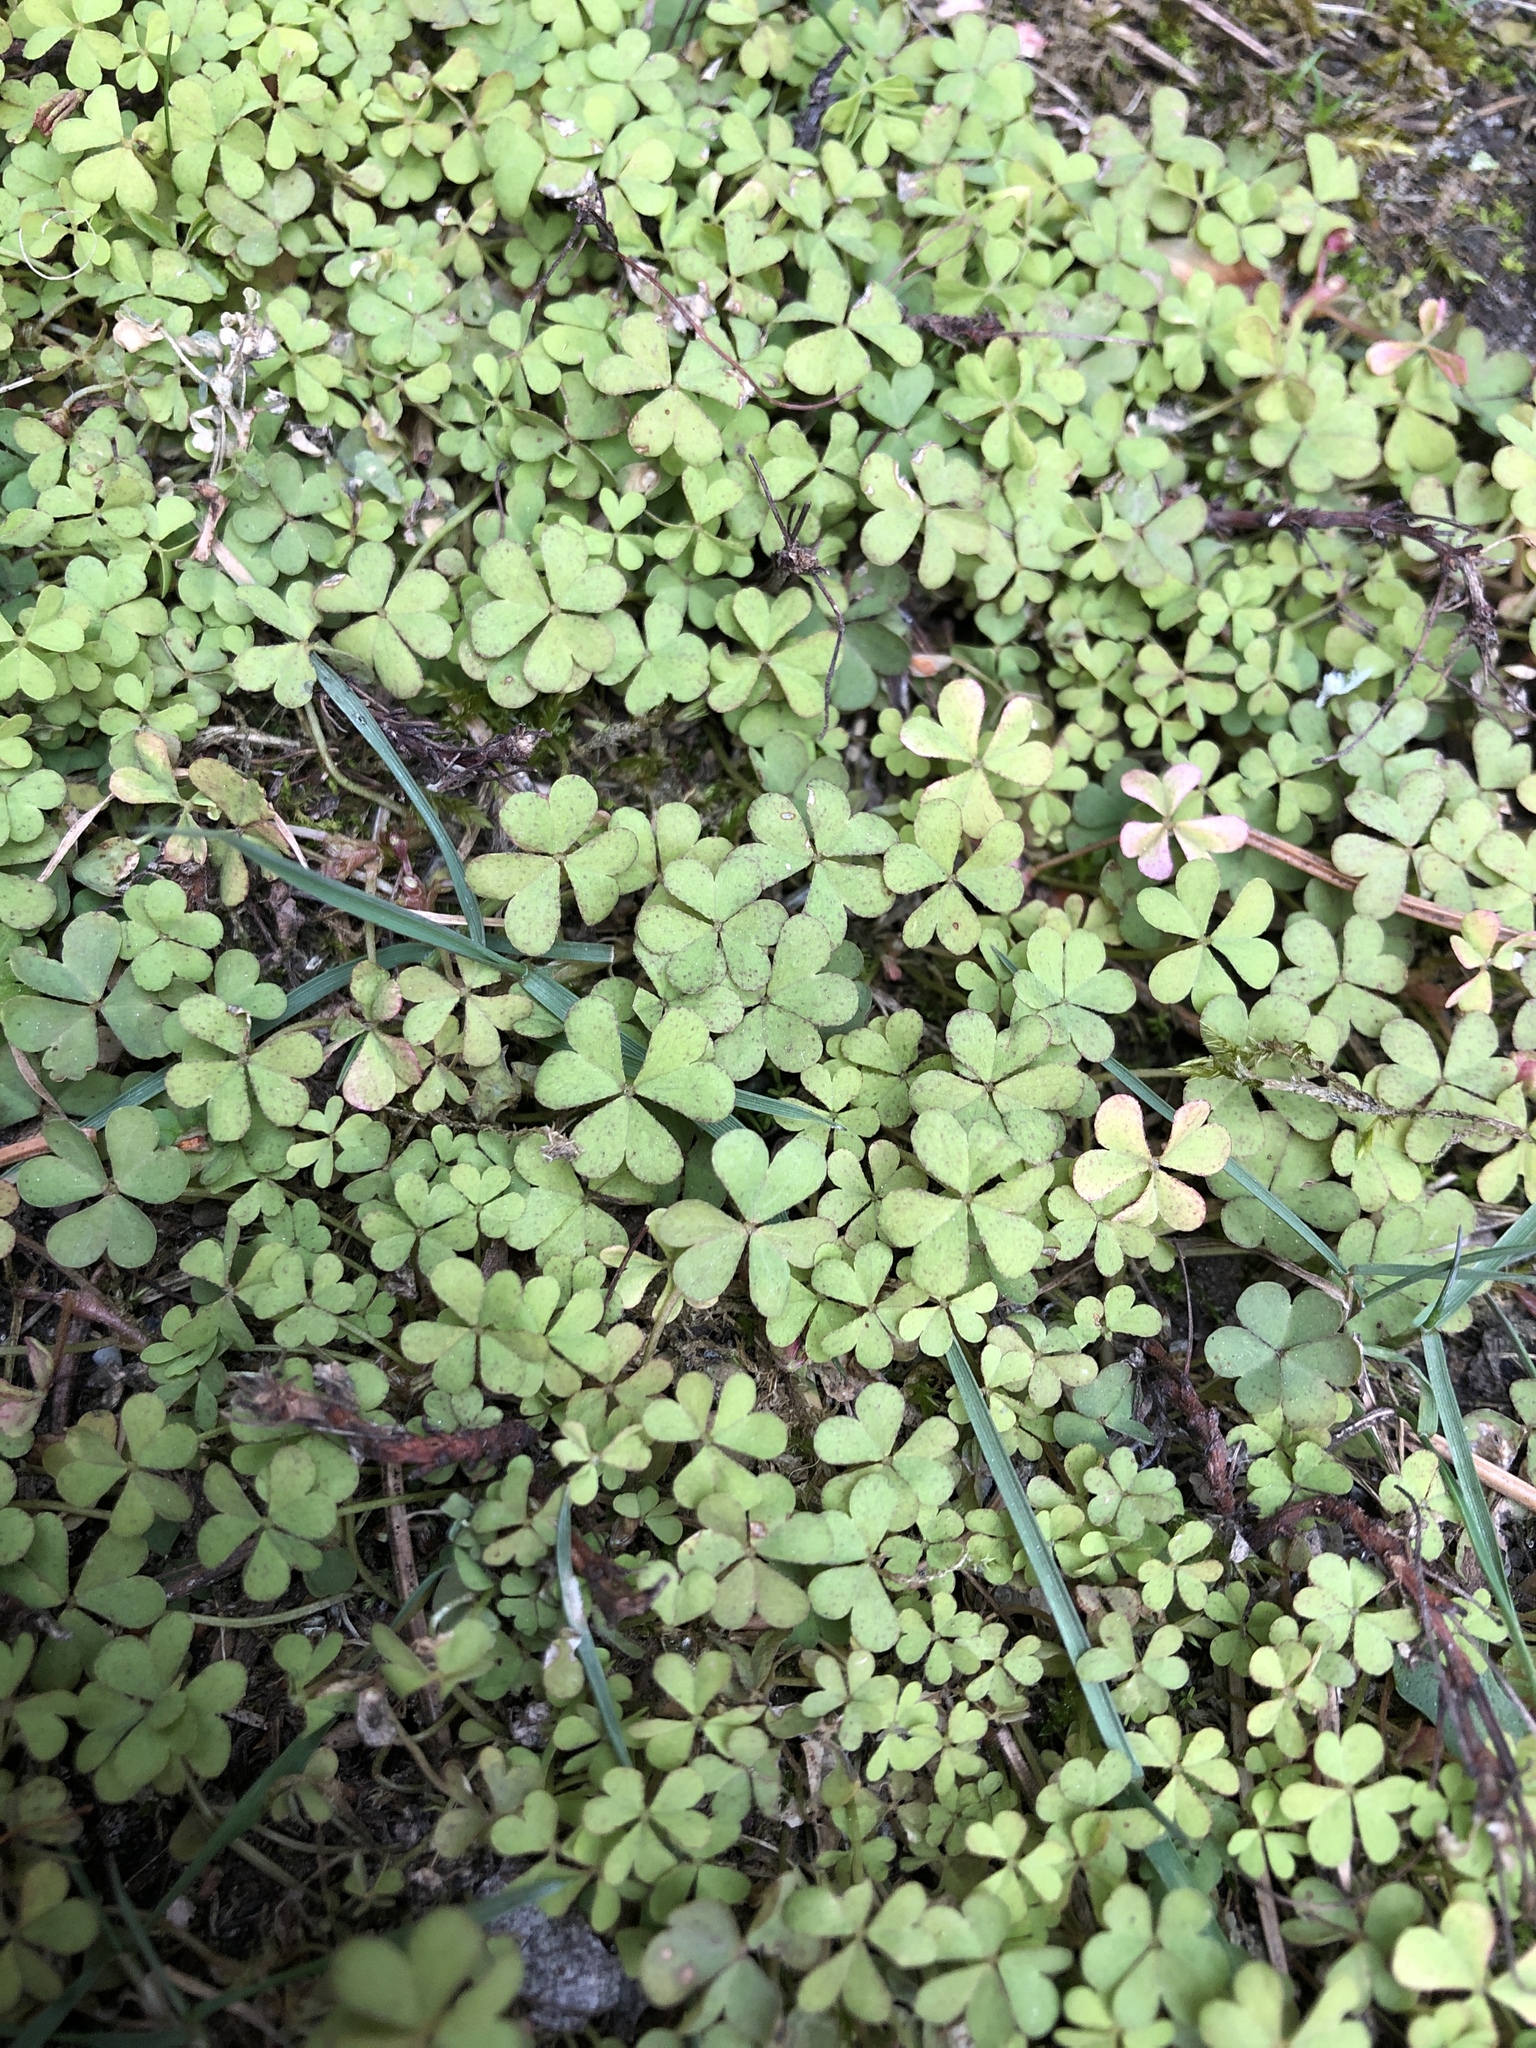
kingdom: Plantae
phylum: Tracheophyta
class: Magnoliopsida
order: Oxalidales
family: Oxalidaceae
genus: Oxalis
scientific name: Oxalis acetosella
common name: Wood-sorrel
